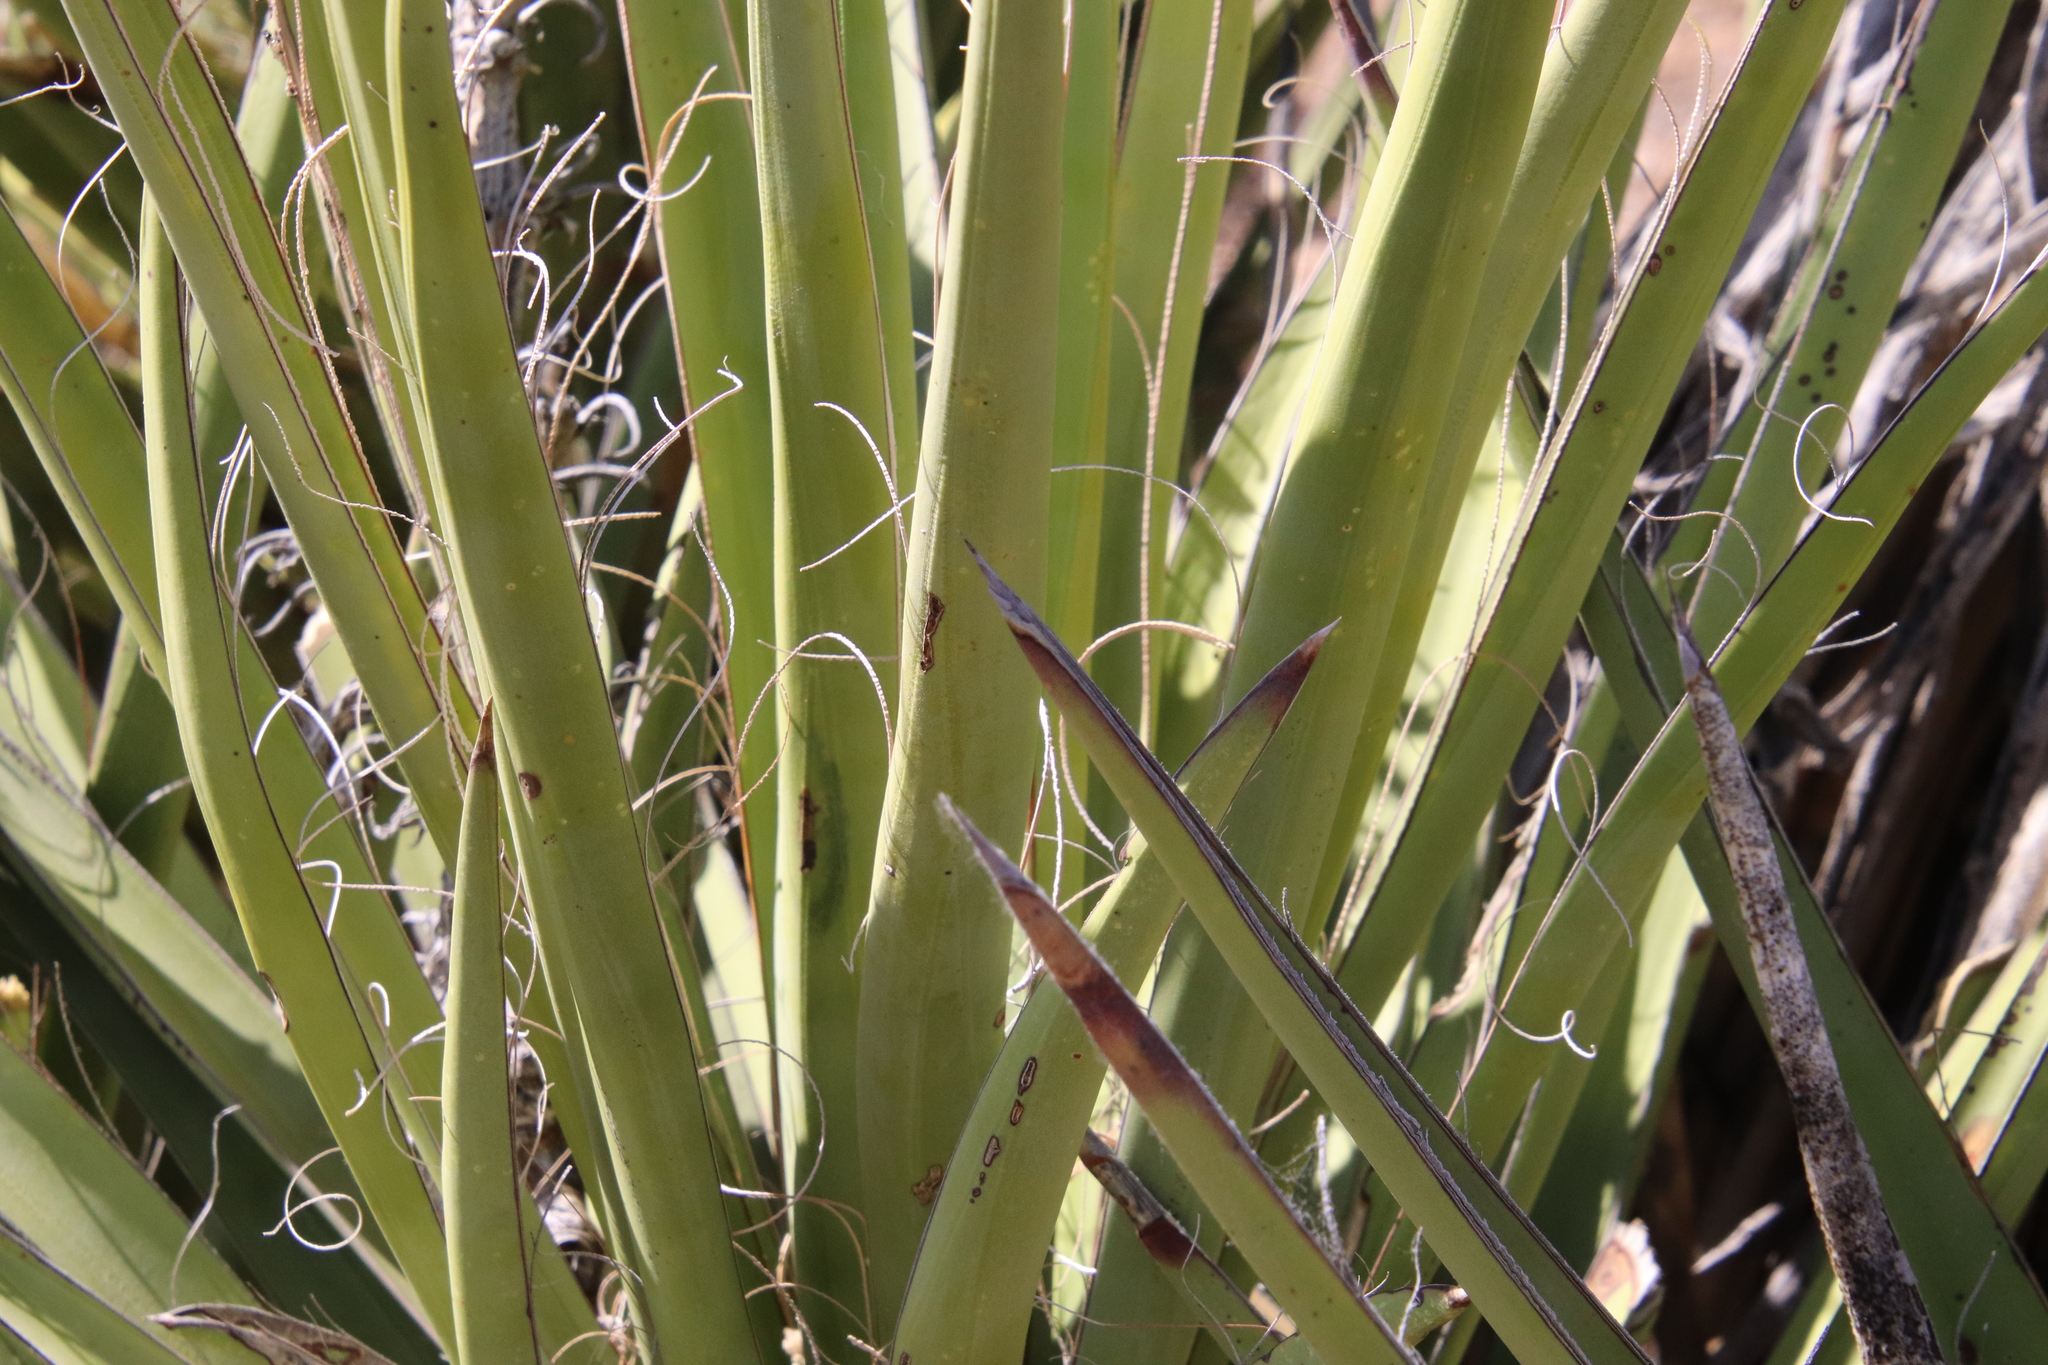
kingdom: Plantae
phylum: Tracheophyta
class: Liliopsida
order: Asparagales
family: Asparagaceae
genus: Yucca
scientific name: Yucca schidigera
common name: Mojave yucca
